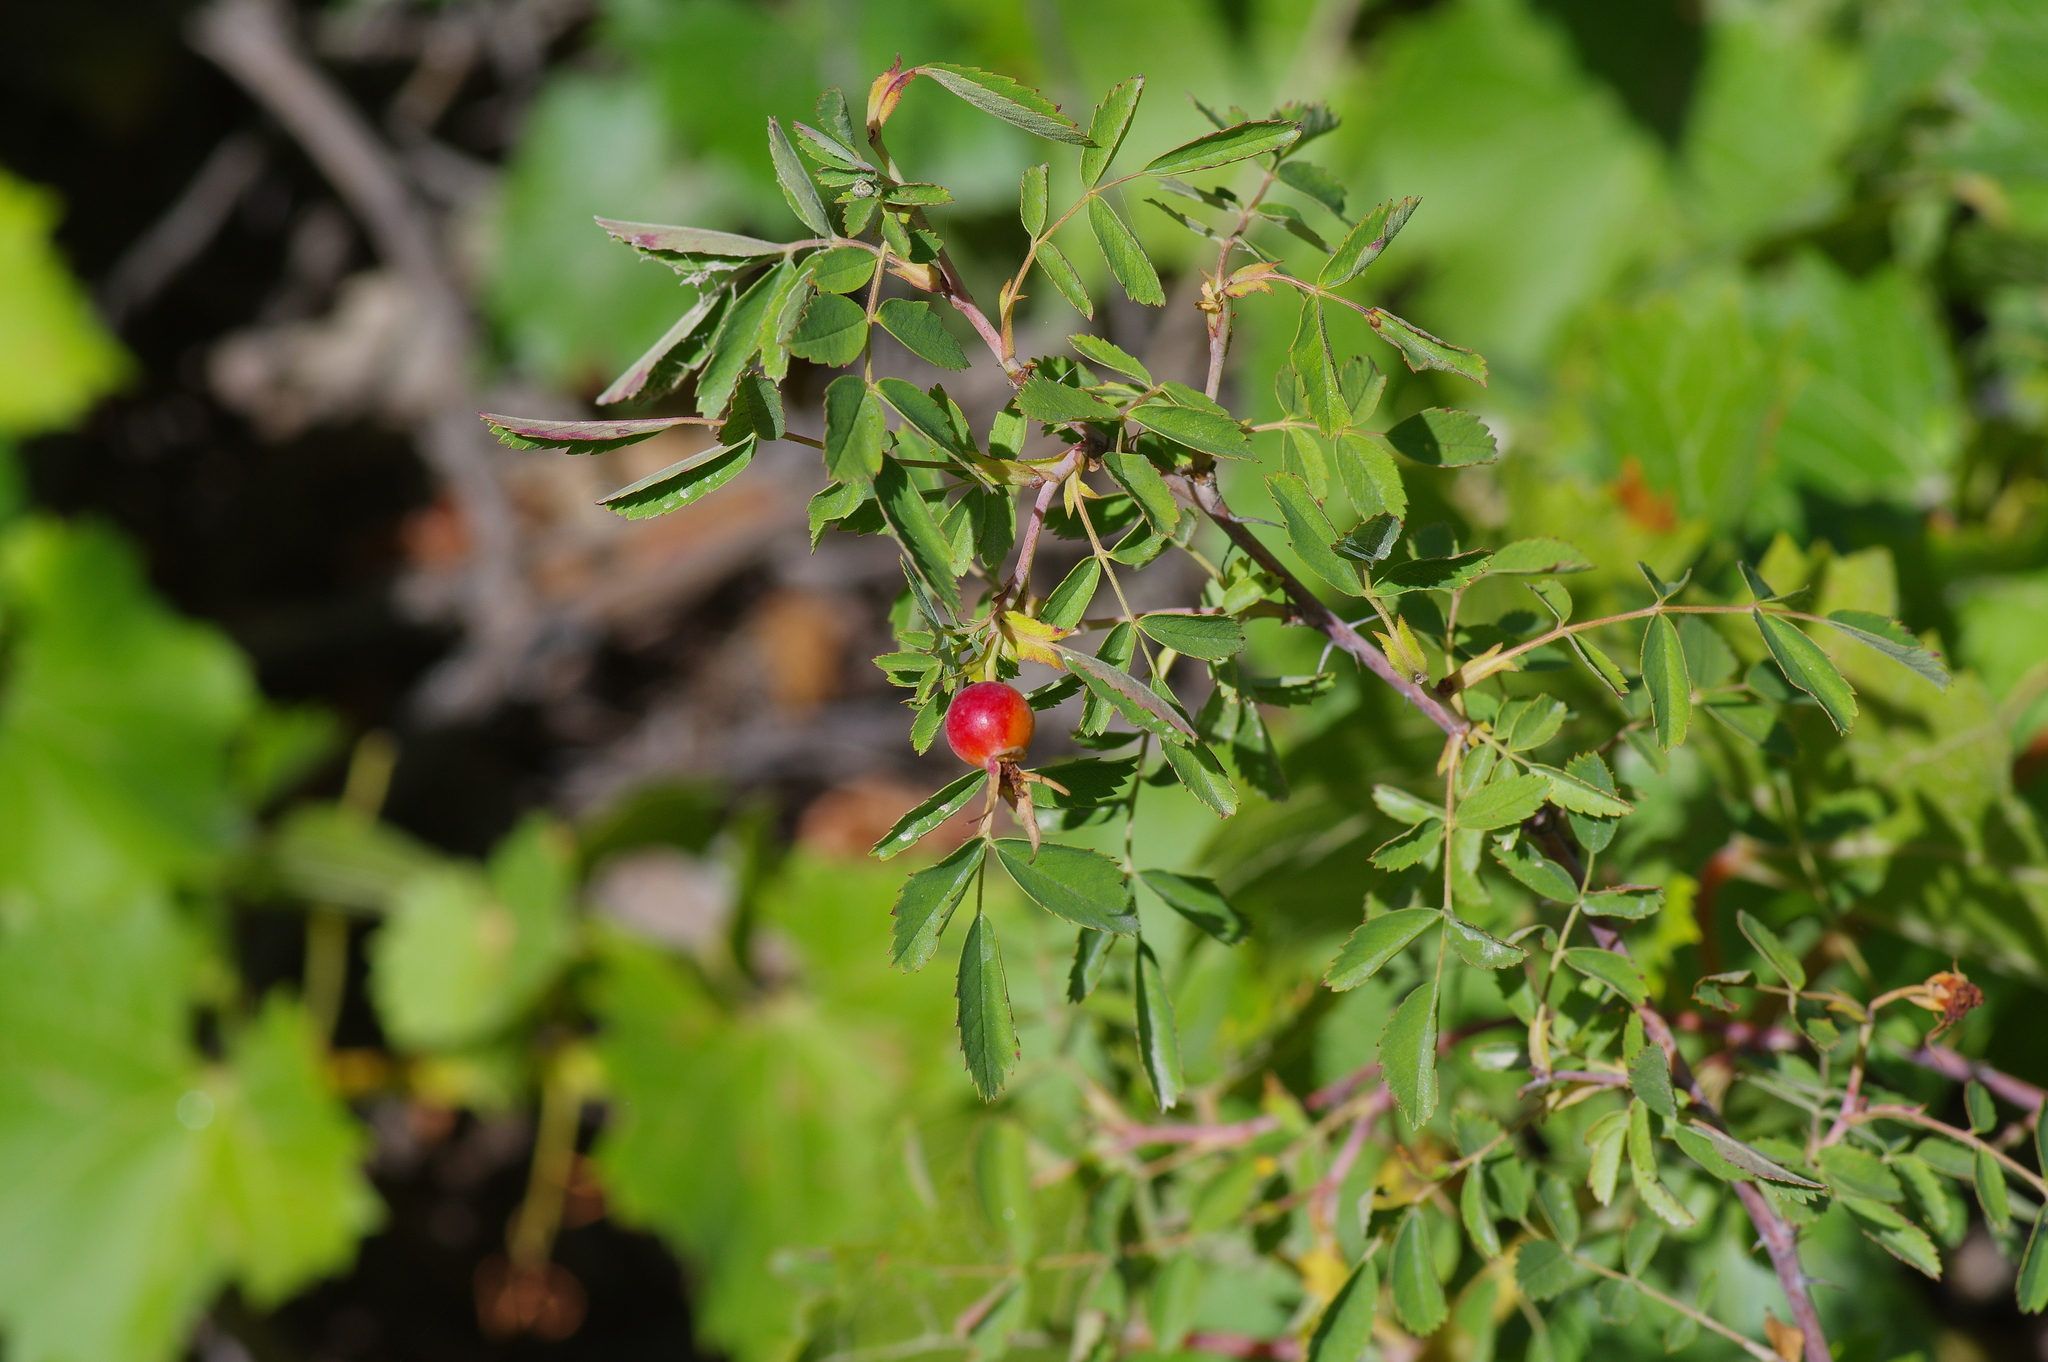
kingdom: Plantae
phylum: Tracheophyta
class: Magnoliopsida
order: Rosales
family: Rosaceae
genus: Rosa
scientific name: Rosa woodsii
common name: Woods's rose
